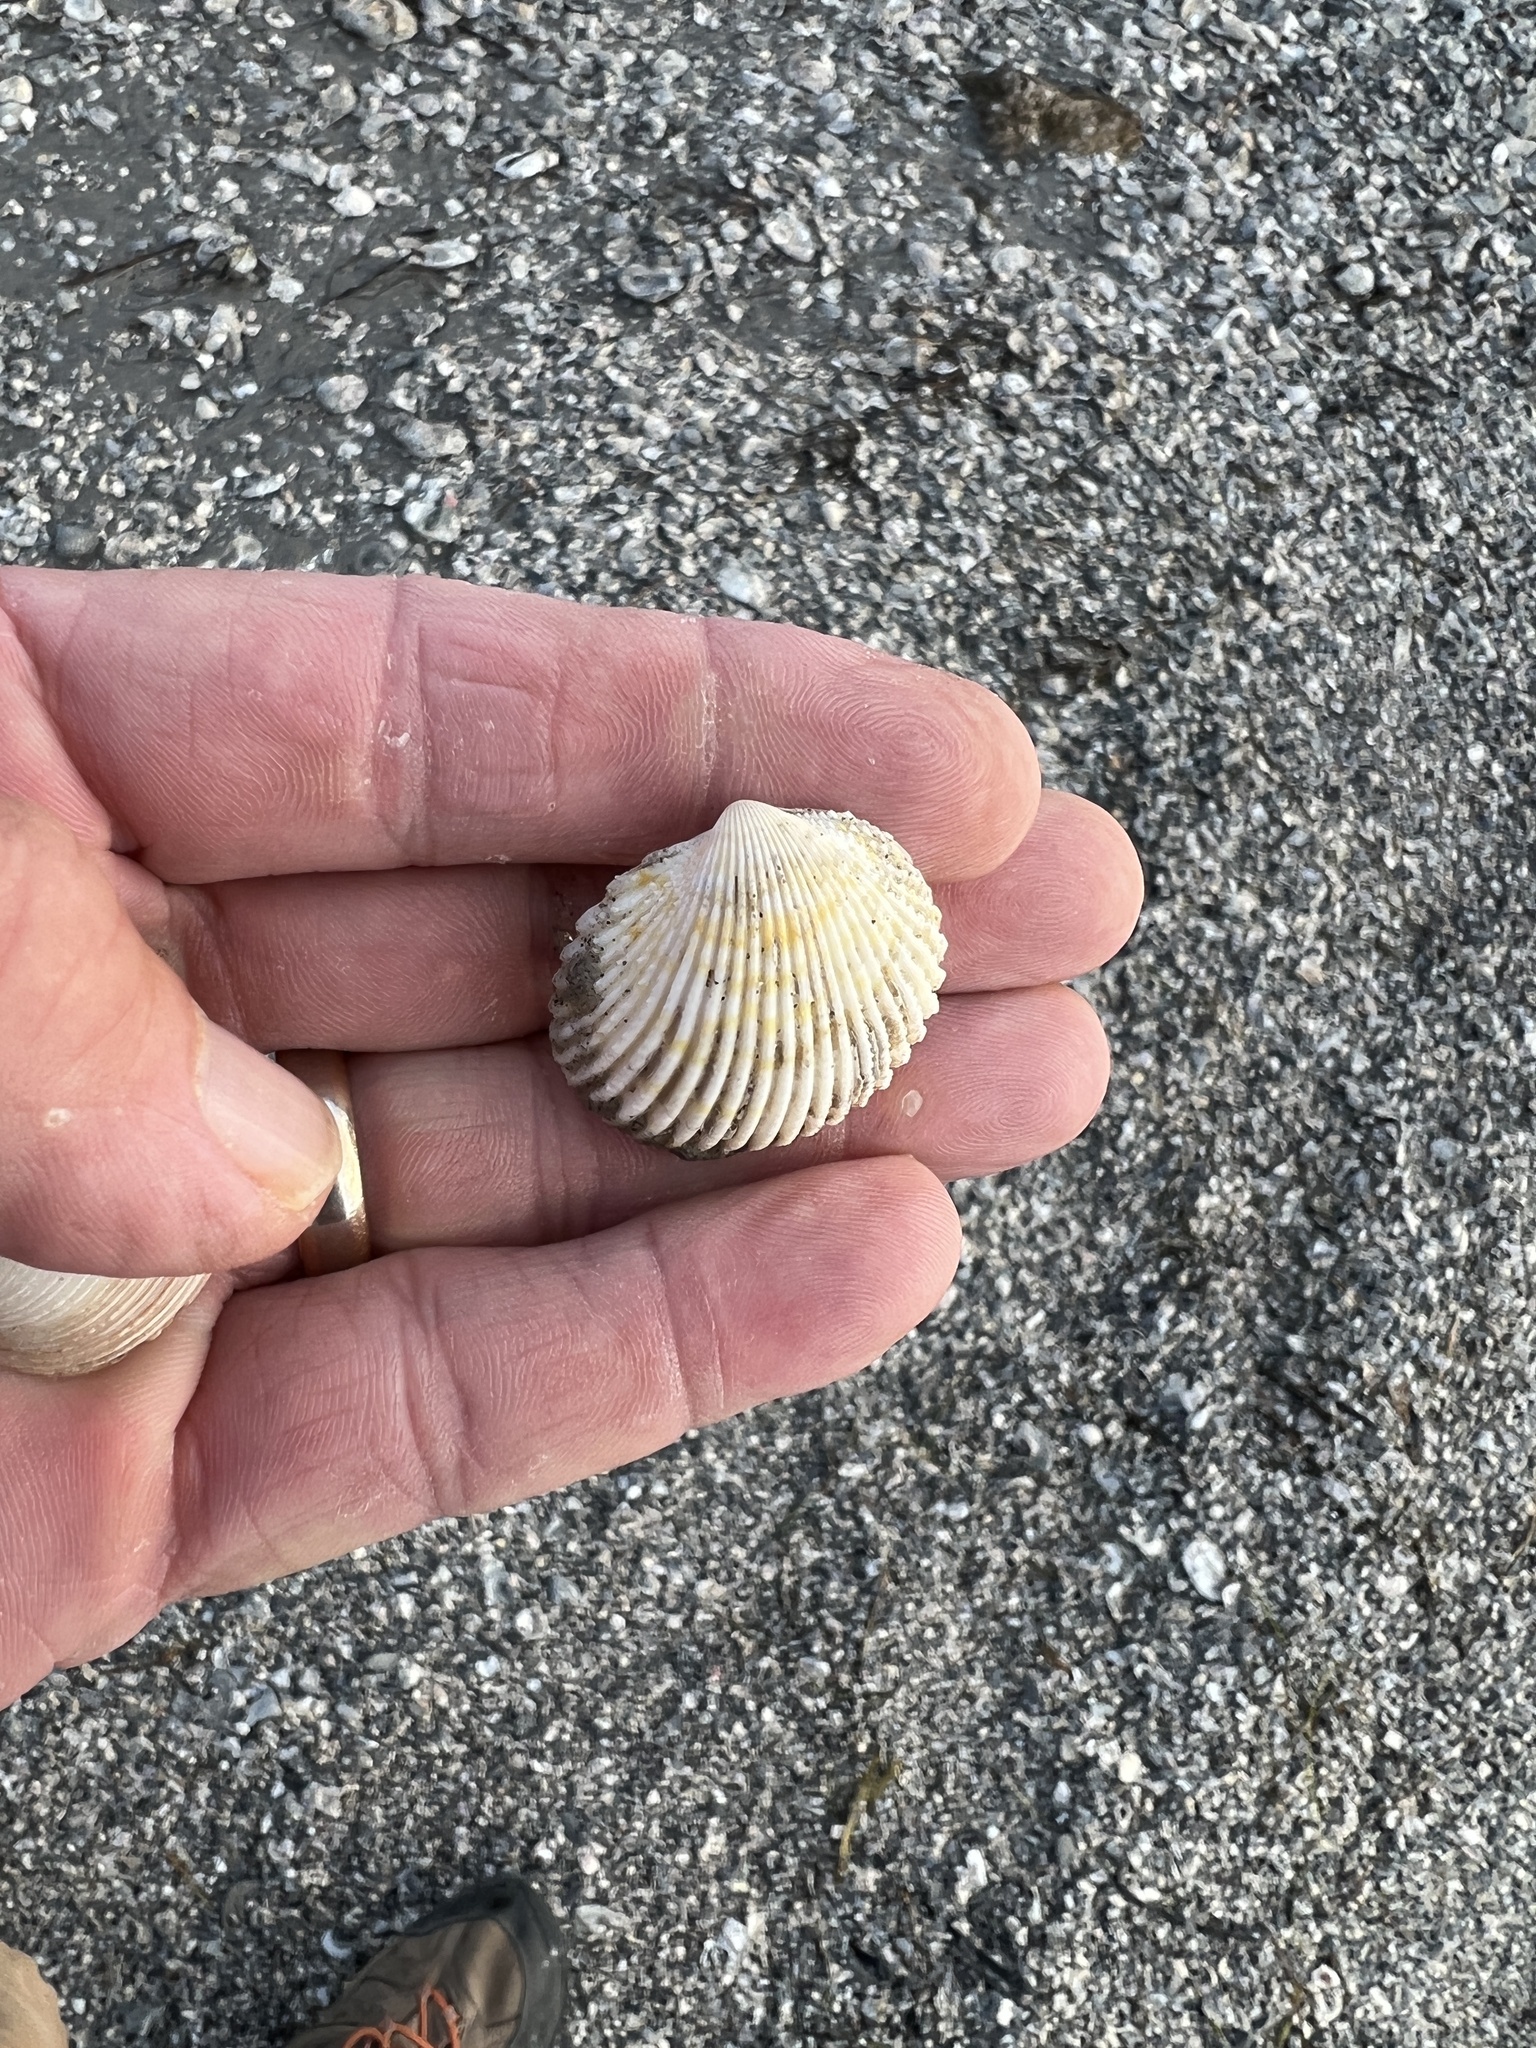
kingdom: Animalia
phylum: Mollusca
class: Bivalvia
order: Cardiida
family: Cardiidae
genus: Dallocardia
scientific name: Dallocardia muricata
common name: Yellow pricklycockle
